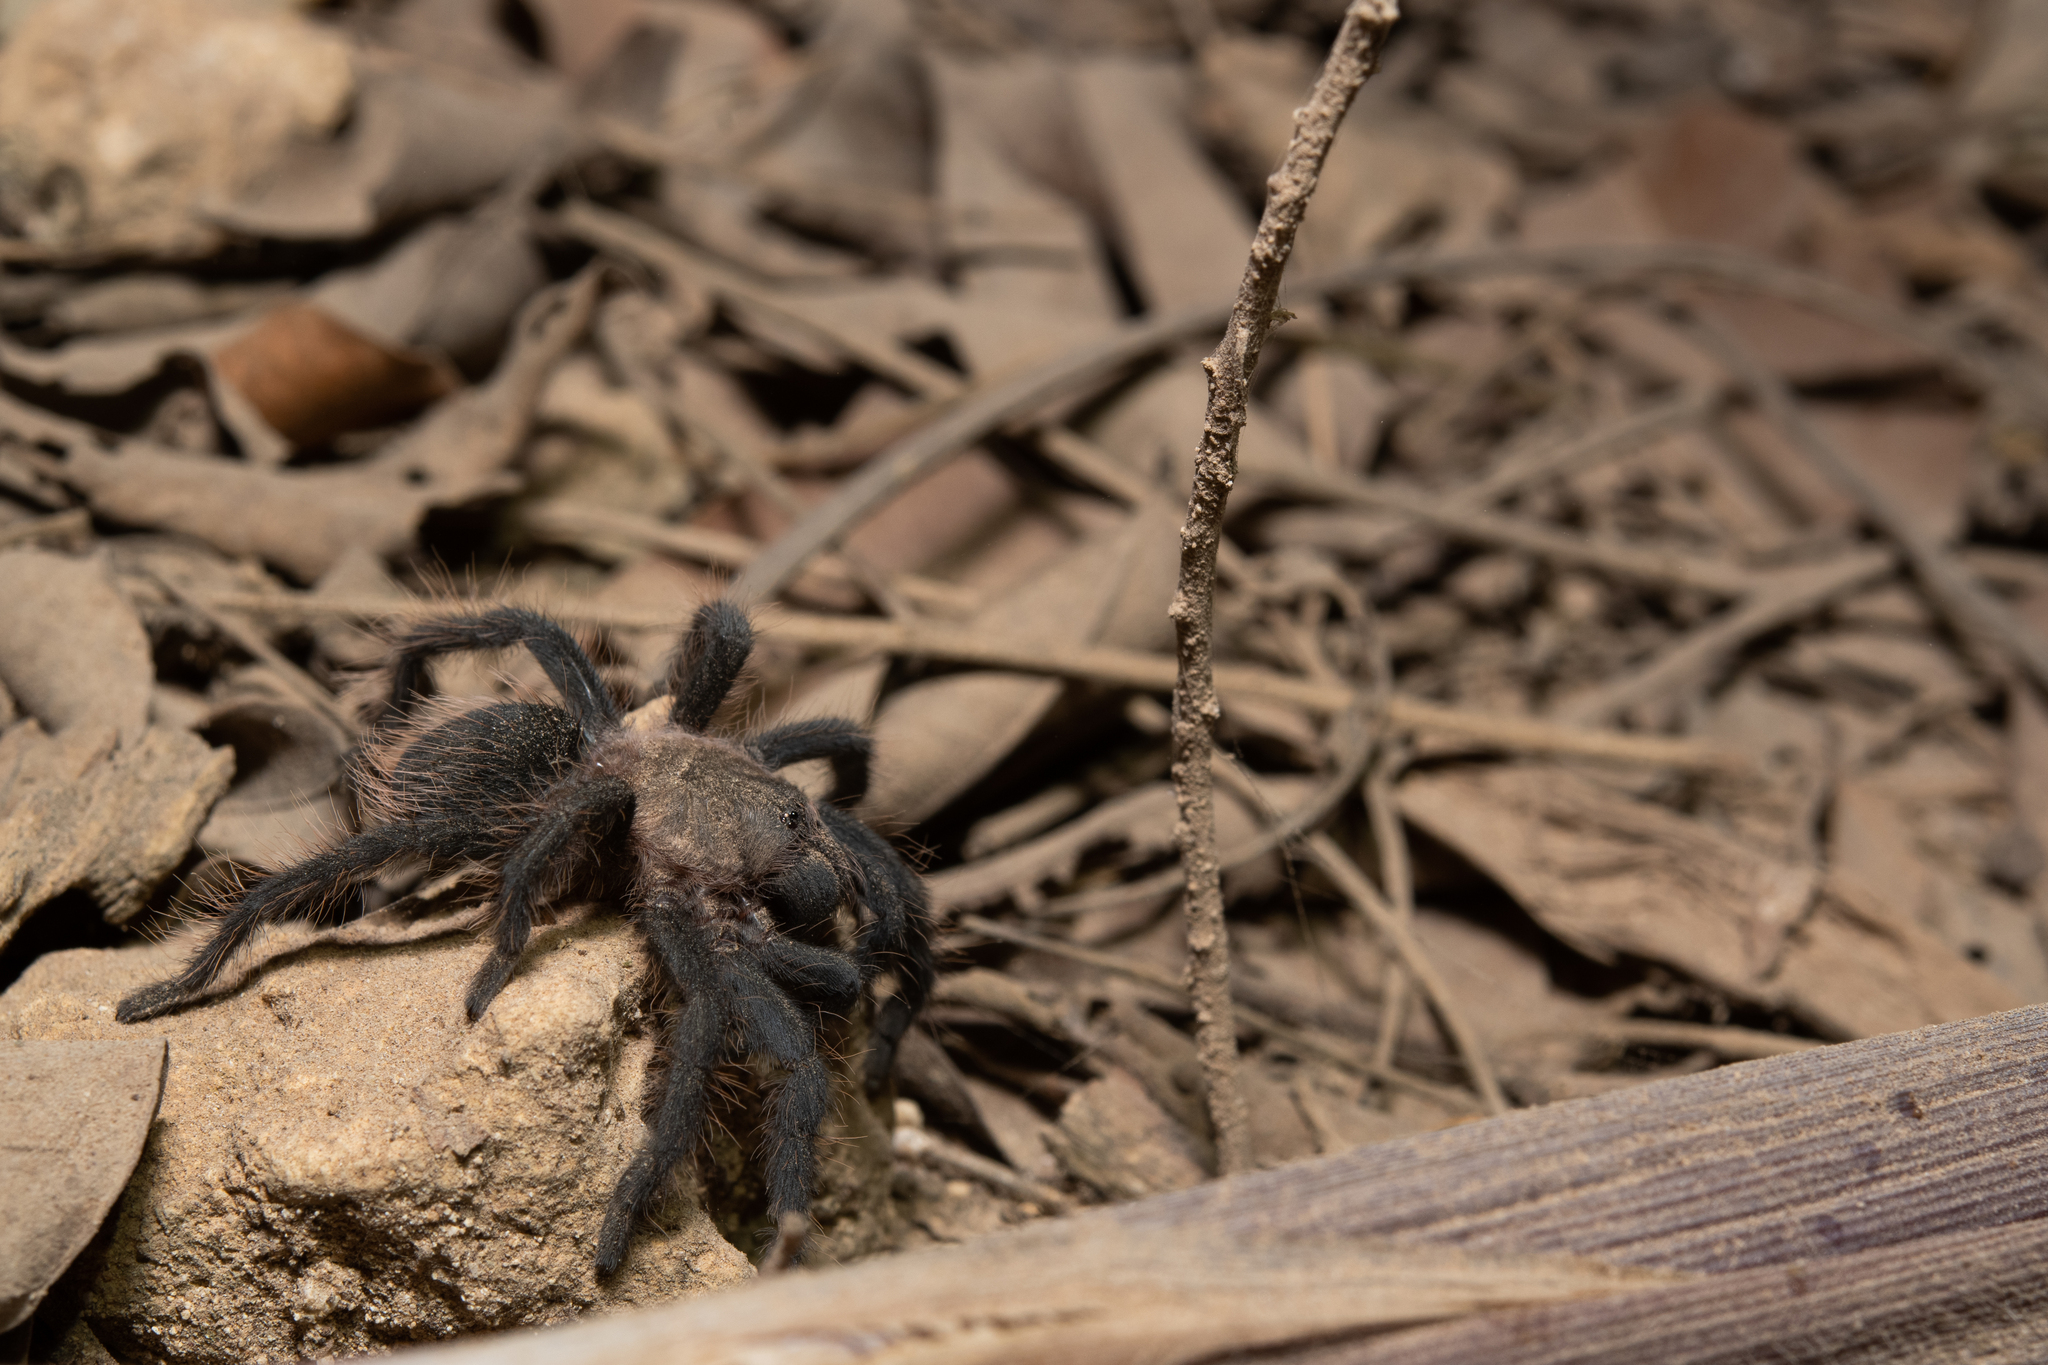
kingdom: Animalia
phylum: Arthropoda
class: Arachnida
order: Araneae
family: Theraphosidae
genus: Tliltocatl
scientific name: Tliltocatl albopilosus
